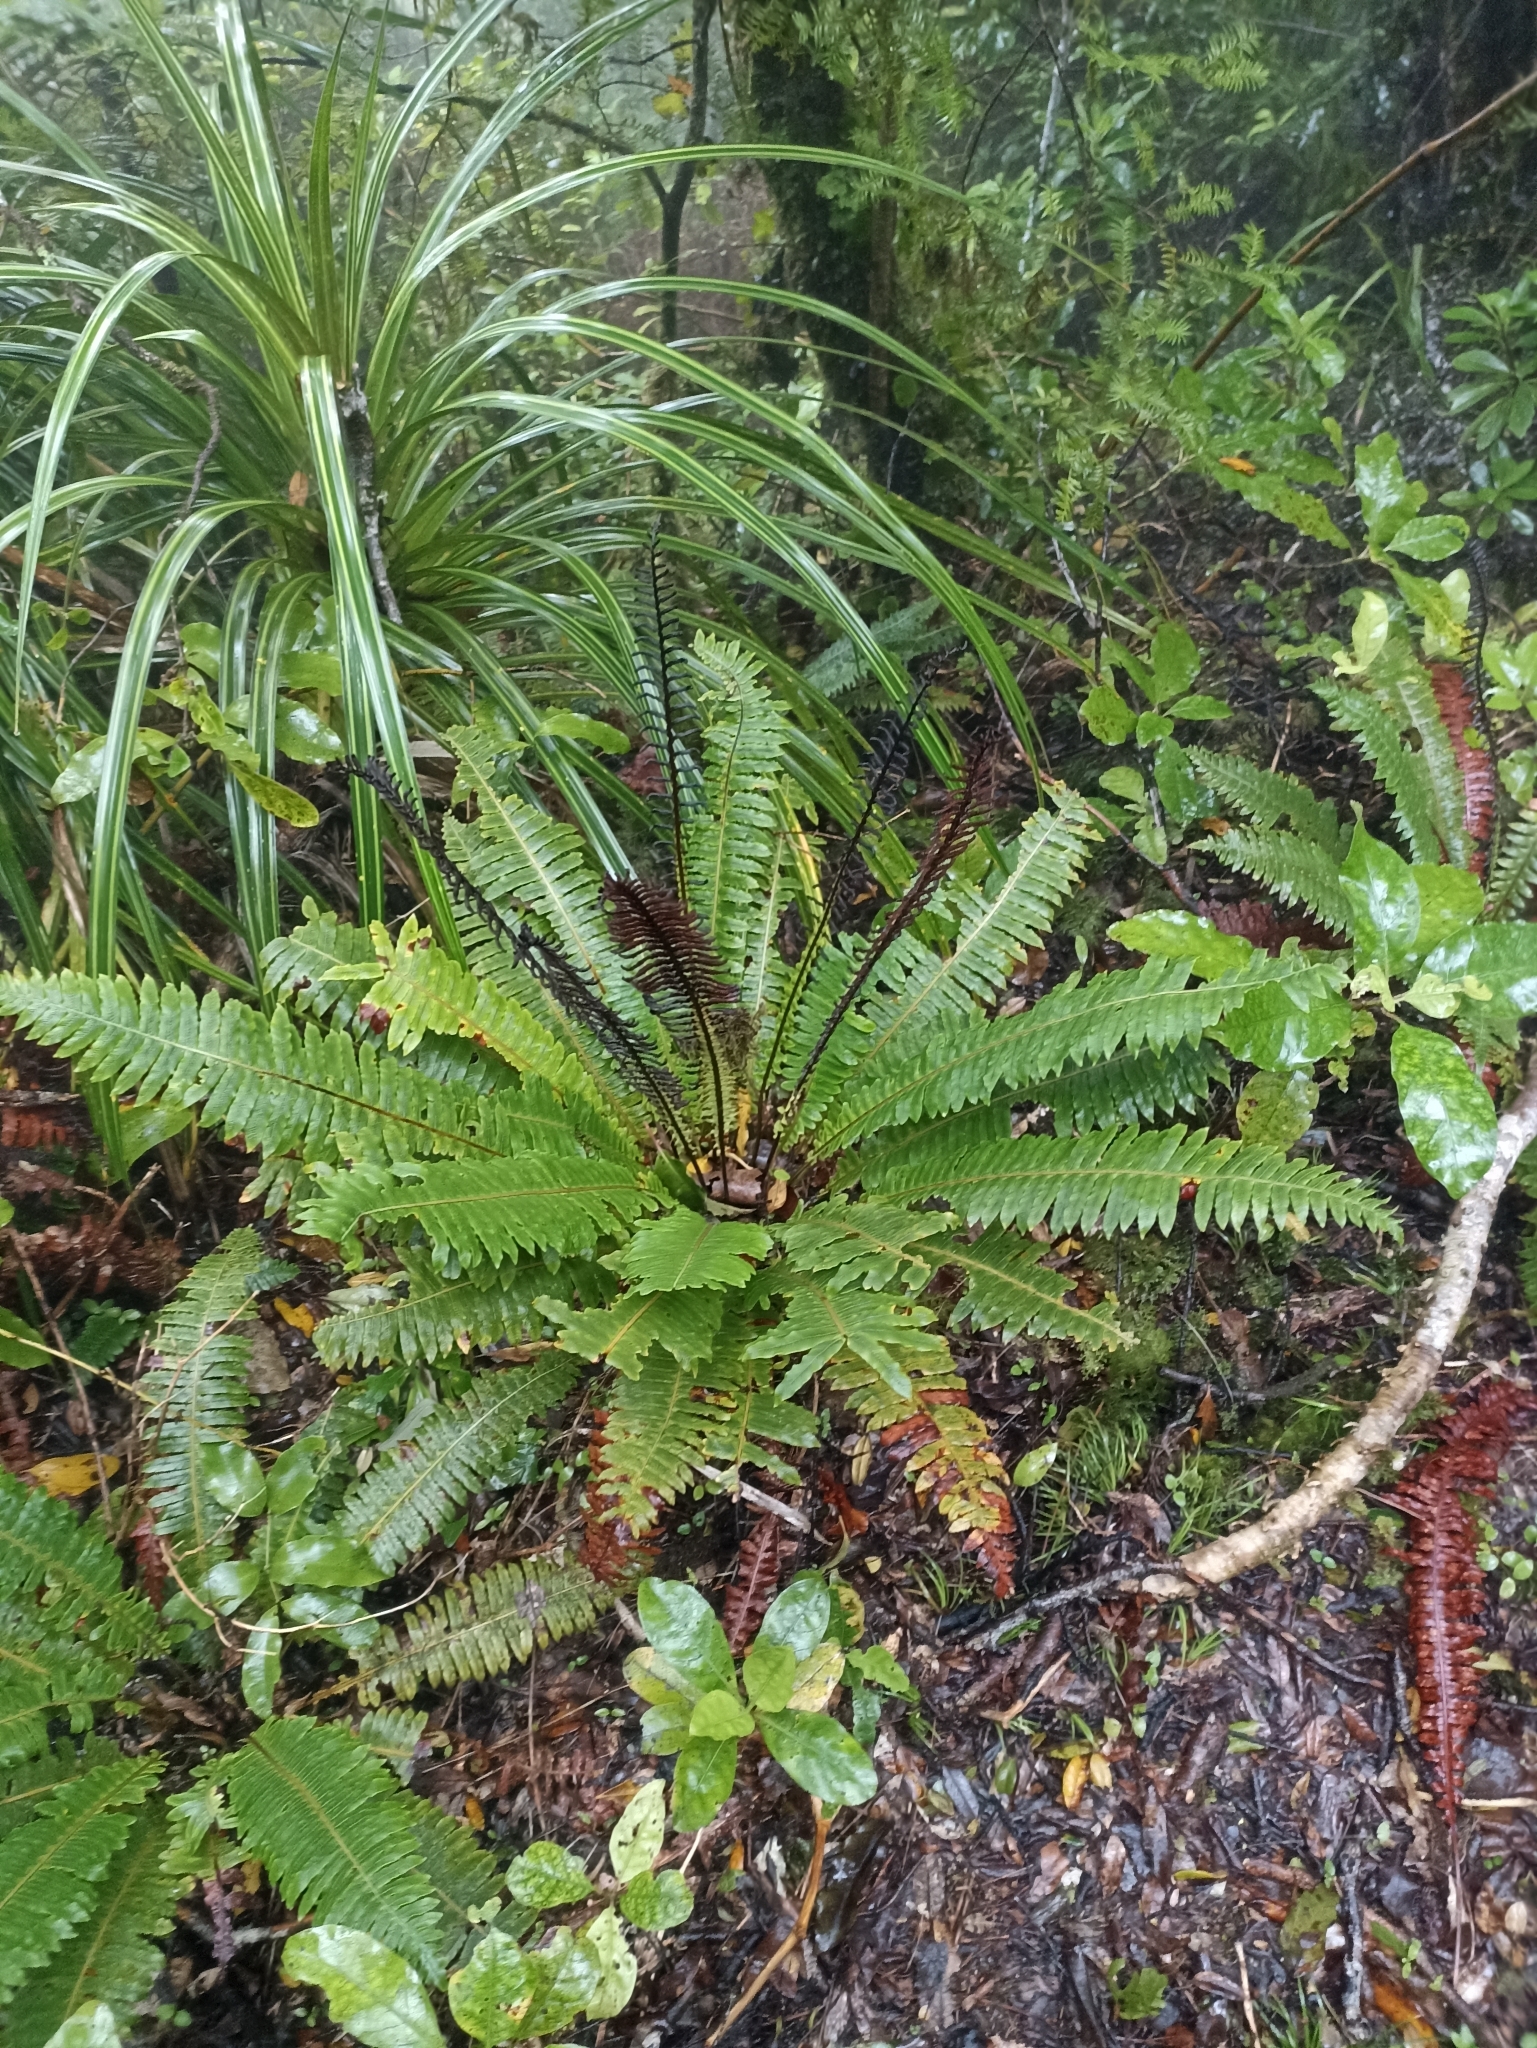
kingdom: Plantae
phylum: Tracheophyta
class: Polypodiopsida
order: Polypodiales
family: Blechnaceae
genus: Lomaria
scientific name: Lomaria discolor
